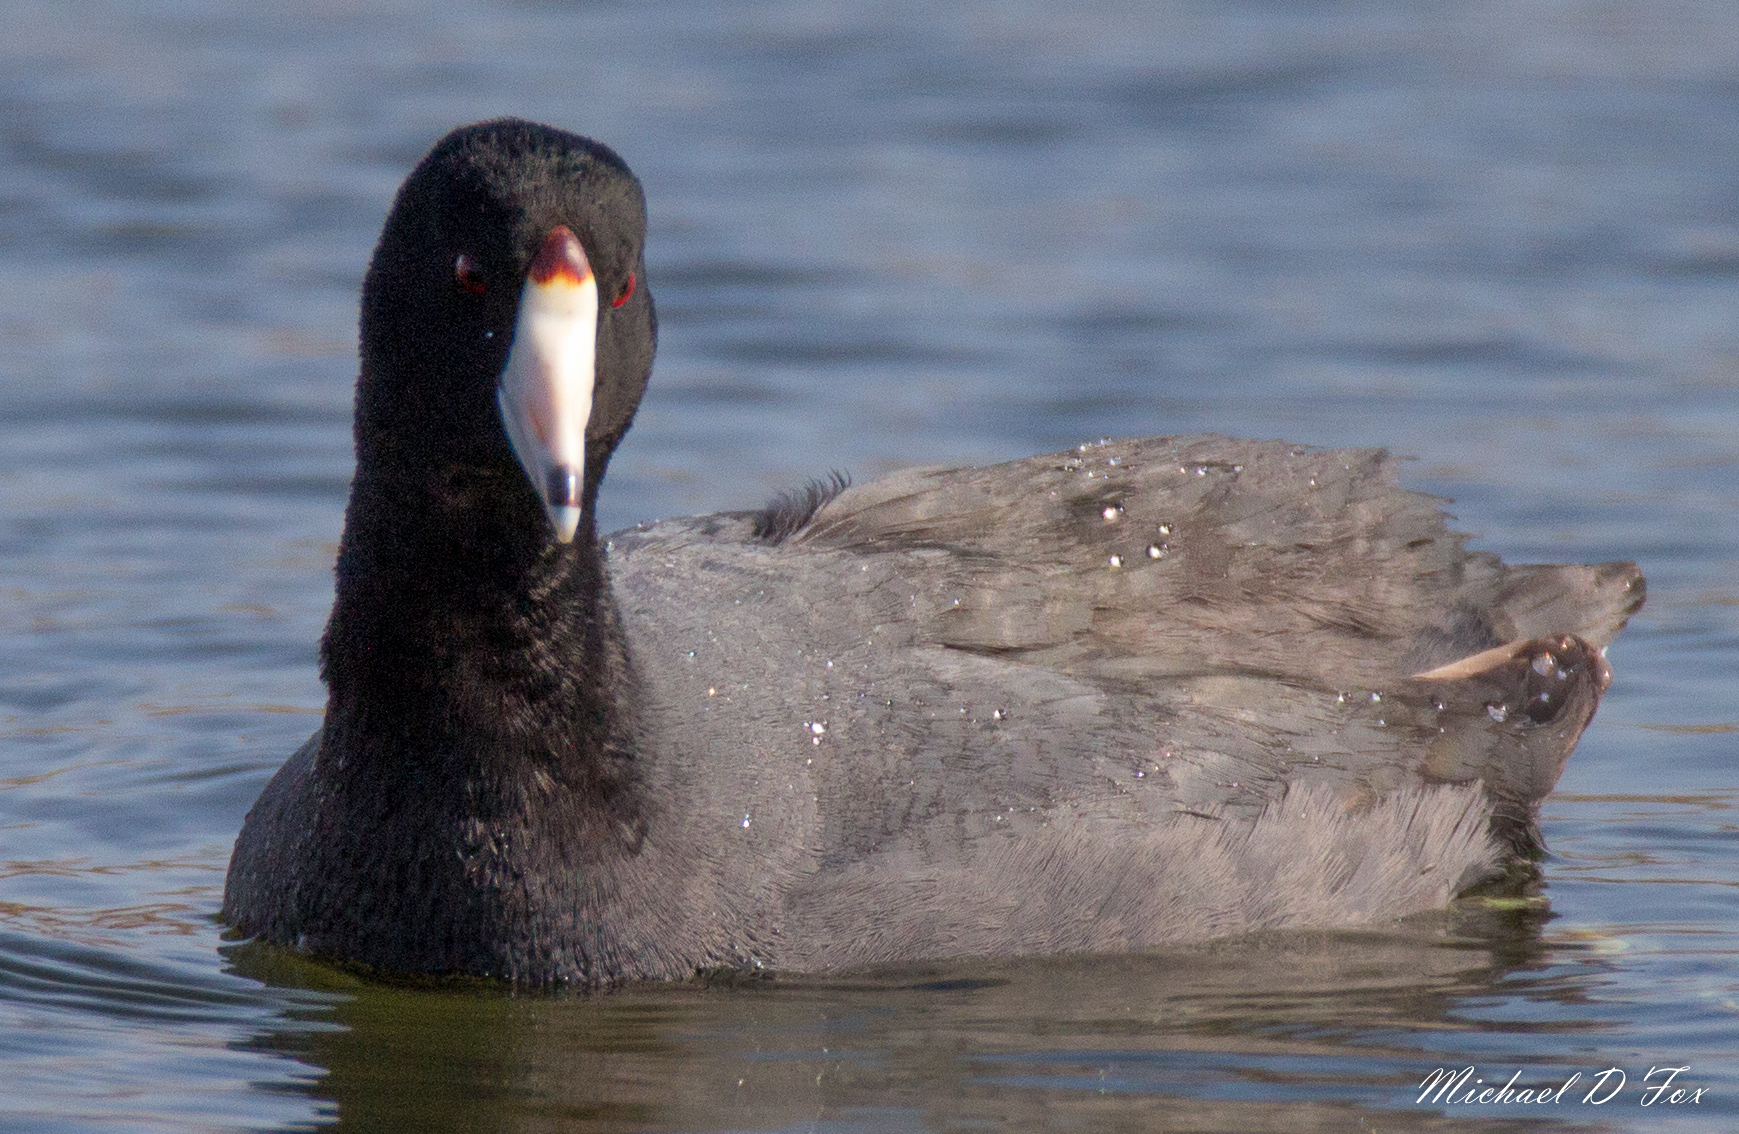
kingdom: Animalia
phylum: Chordata
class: Aves
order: Gruiformes
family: Rallidae
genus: Fulica
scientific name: Fulica americana
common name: American coot
